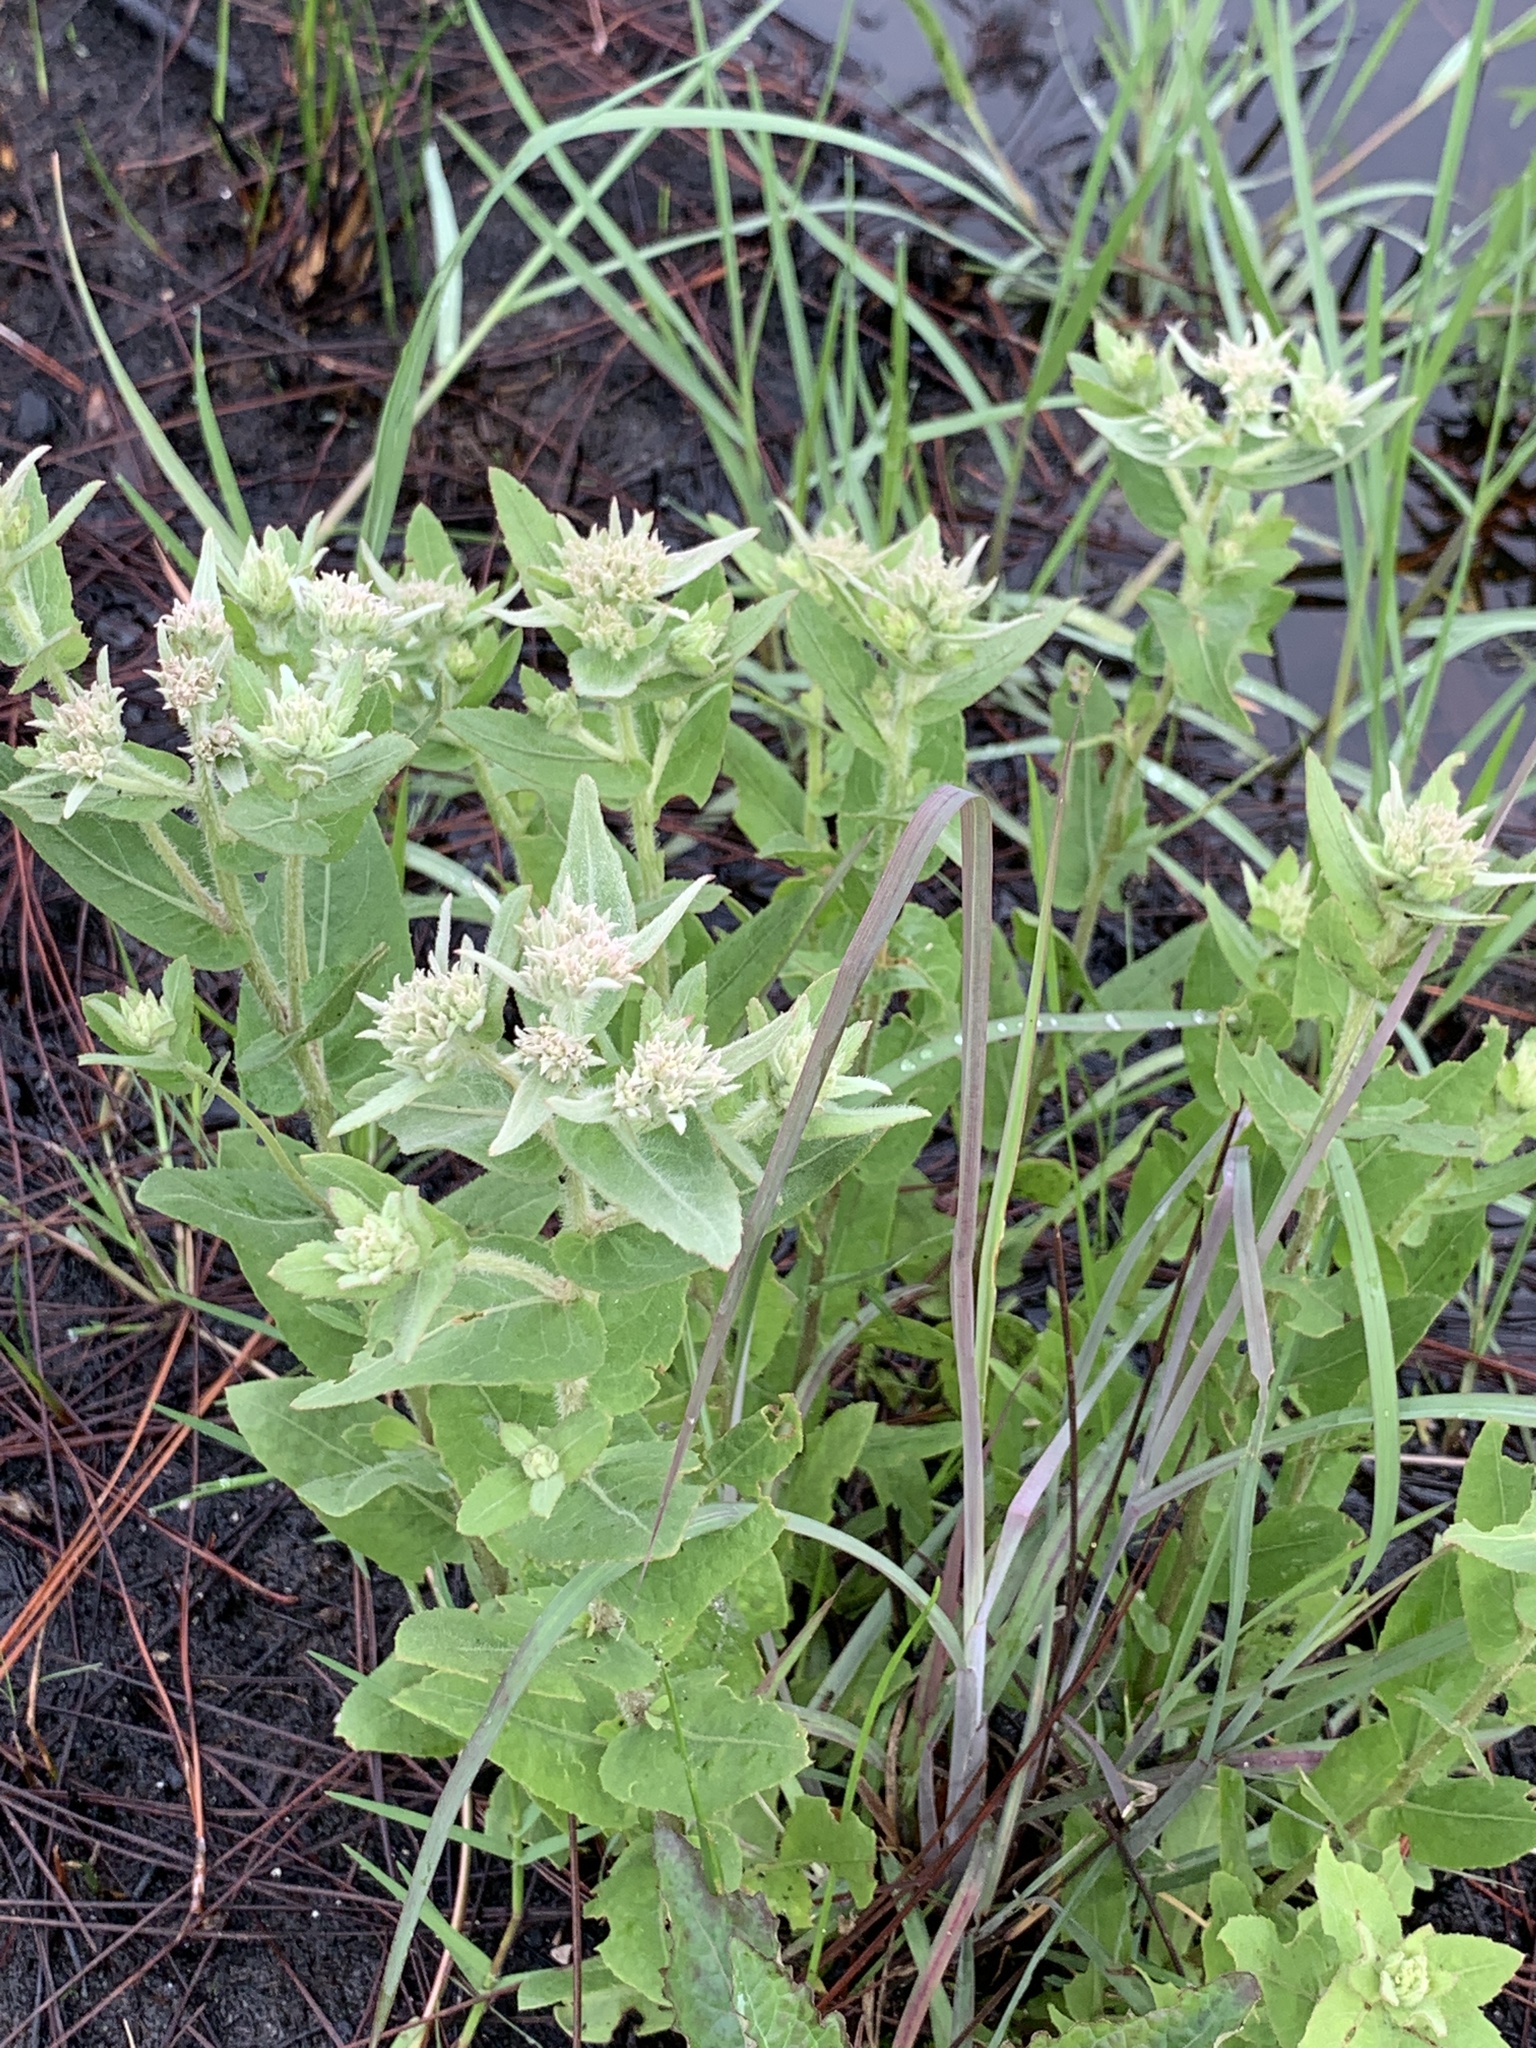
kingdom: Plantae
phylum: Tracheophyta
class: Magnoliopsida
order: Asterales
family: Asteraceae
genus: Pluchea
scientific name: Pluchea baccharis
